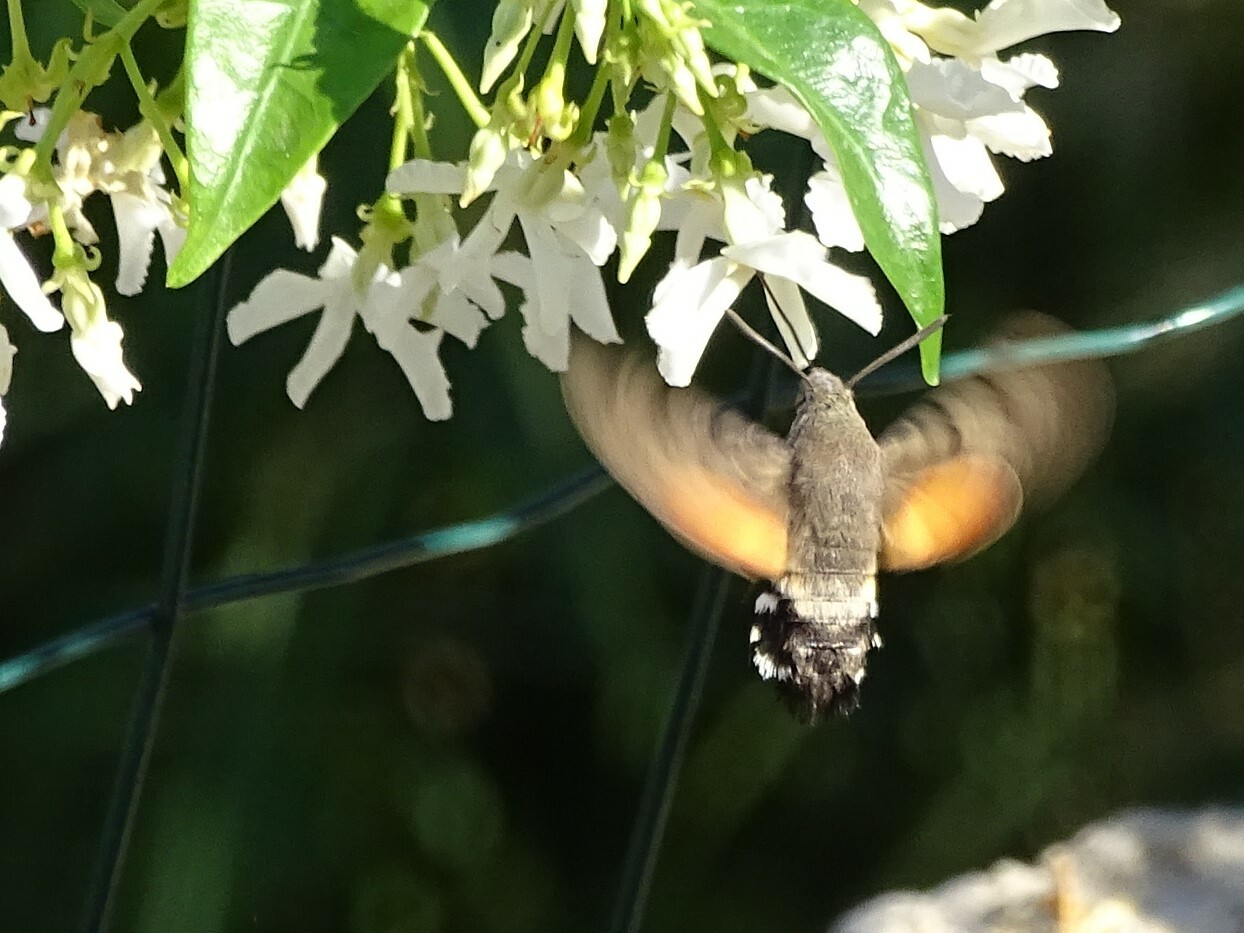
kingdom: Animalia
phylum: Arthropoda
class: Insecta
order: Lepidoptera
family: Sphingidae
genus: Macroglossum
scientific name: Macroglossum stellatarum
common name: Humming-bird hawk-moth
